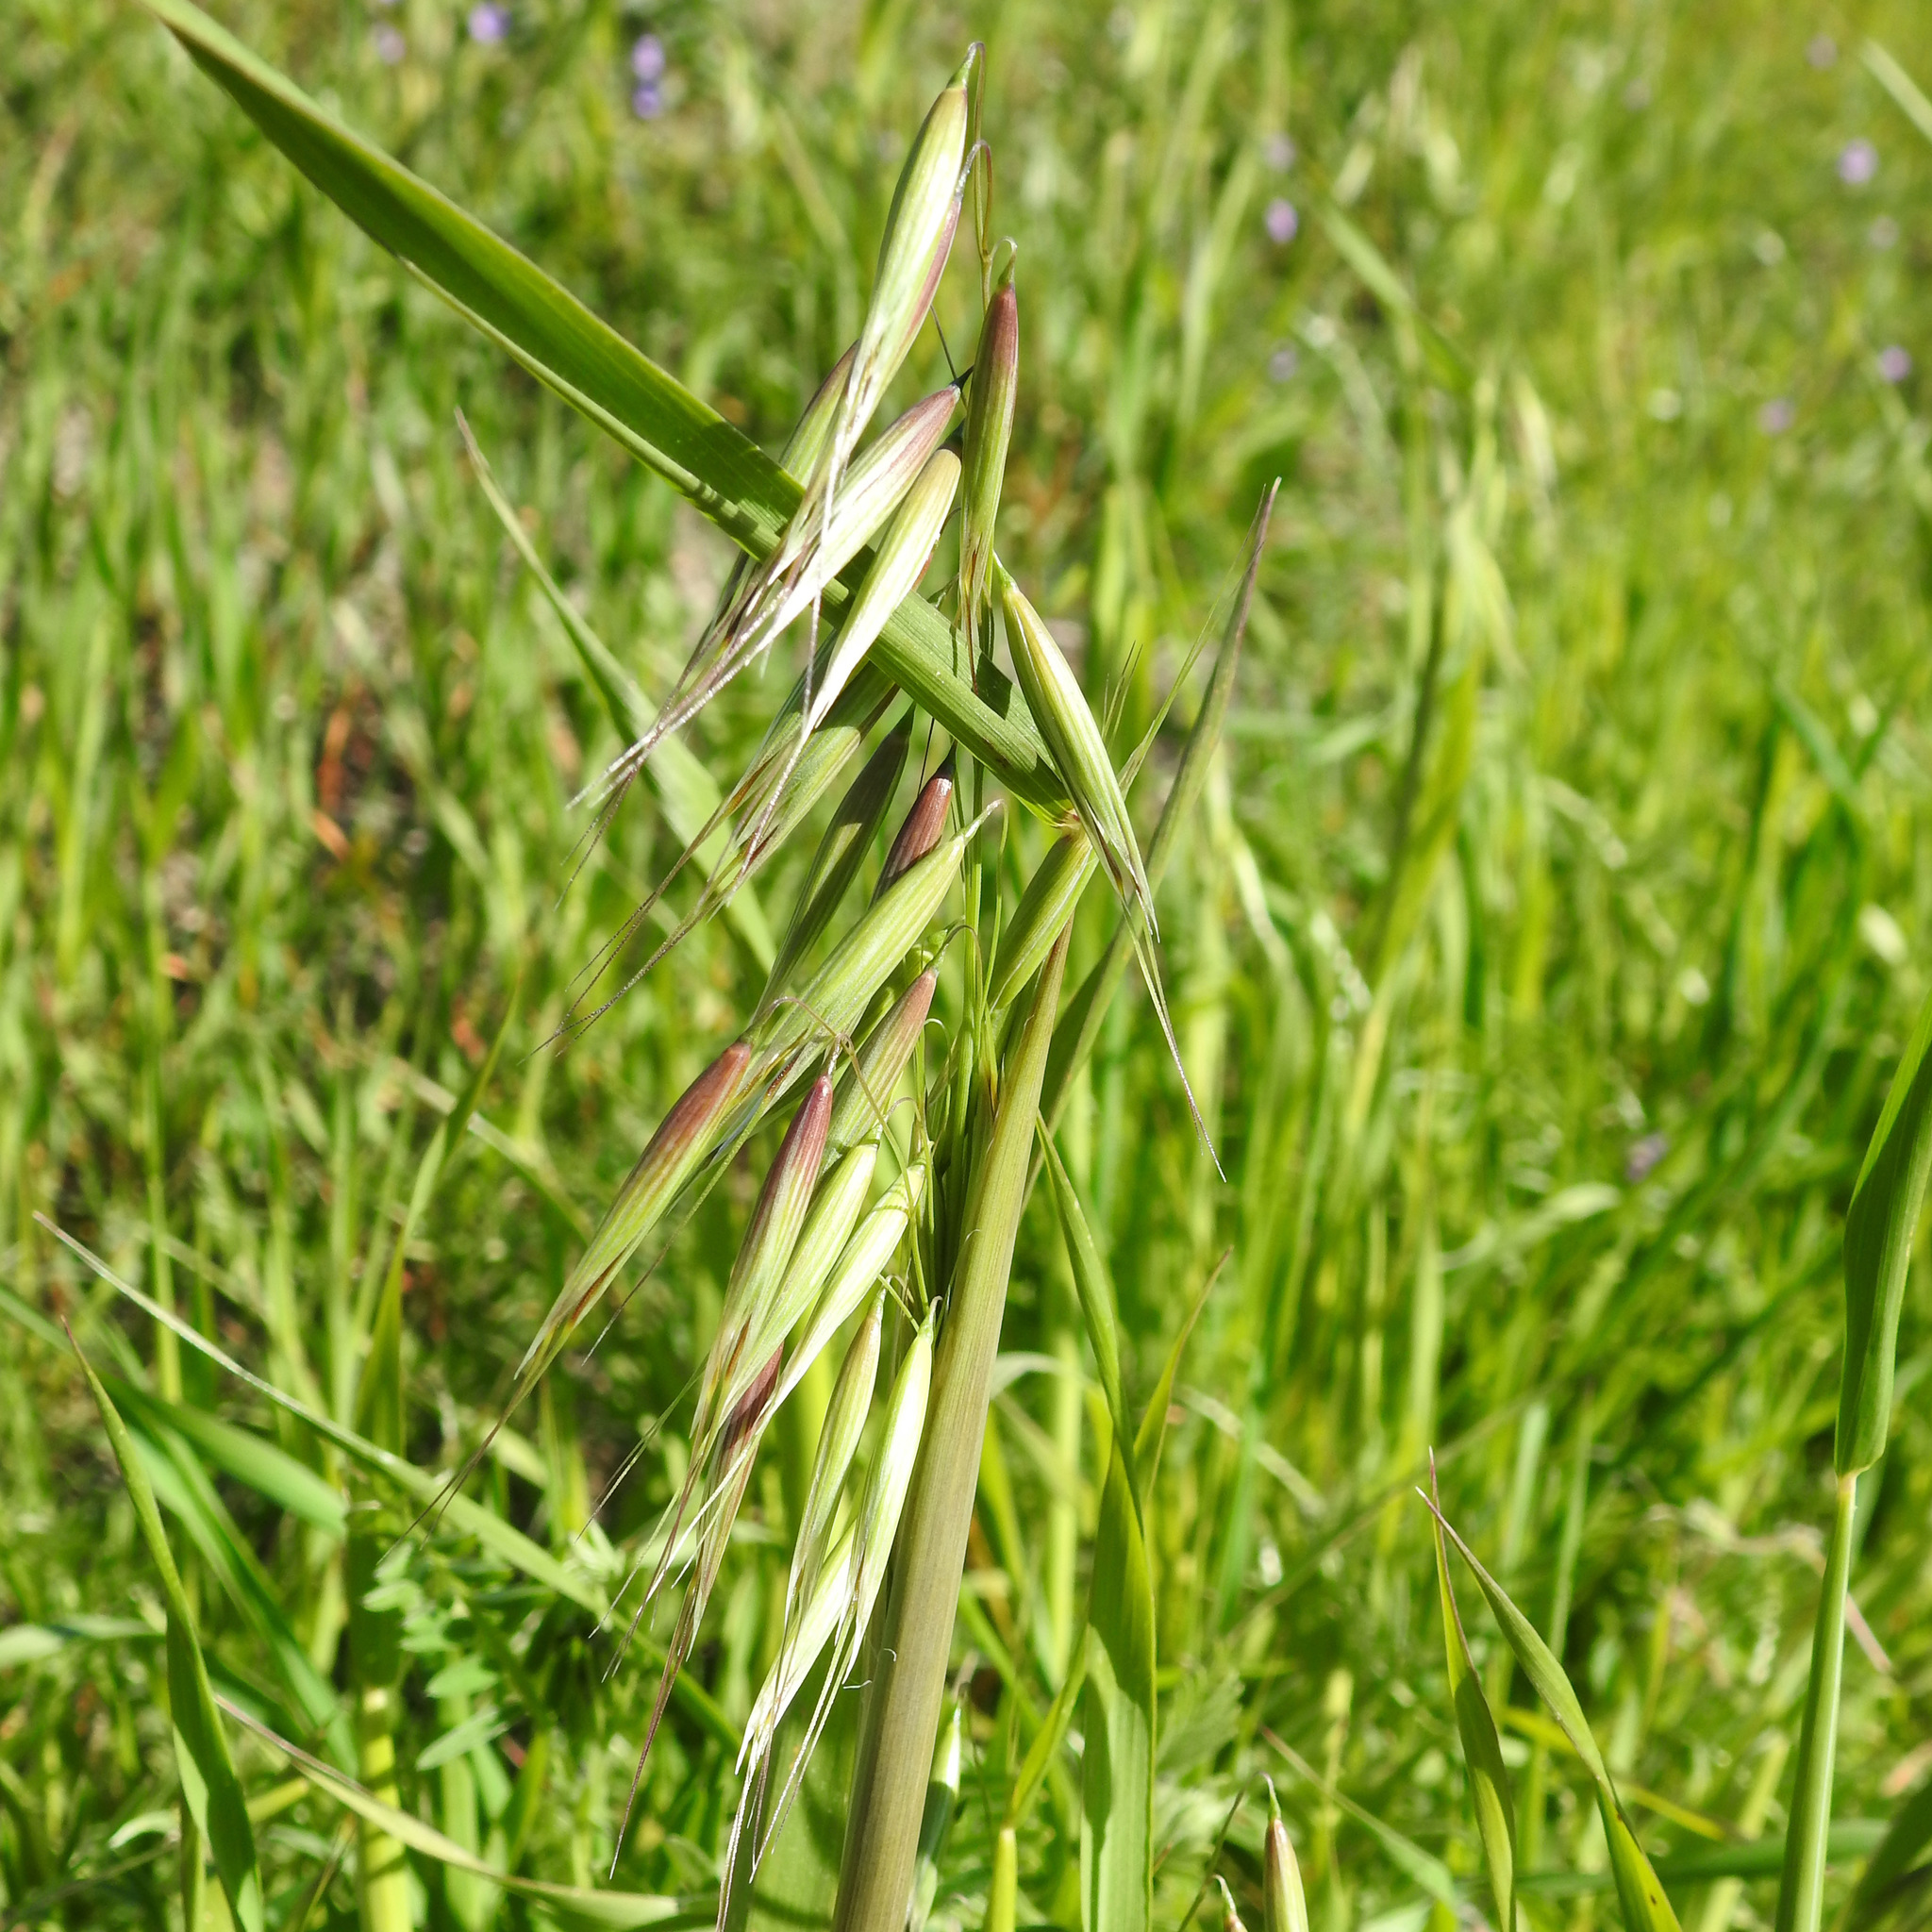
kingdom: Plantae
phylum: Tracheophyta
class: Liliopsida
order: Poales
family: Poaceae
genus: Avena
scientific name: Avena barbata
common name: Slender oat
